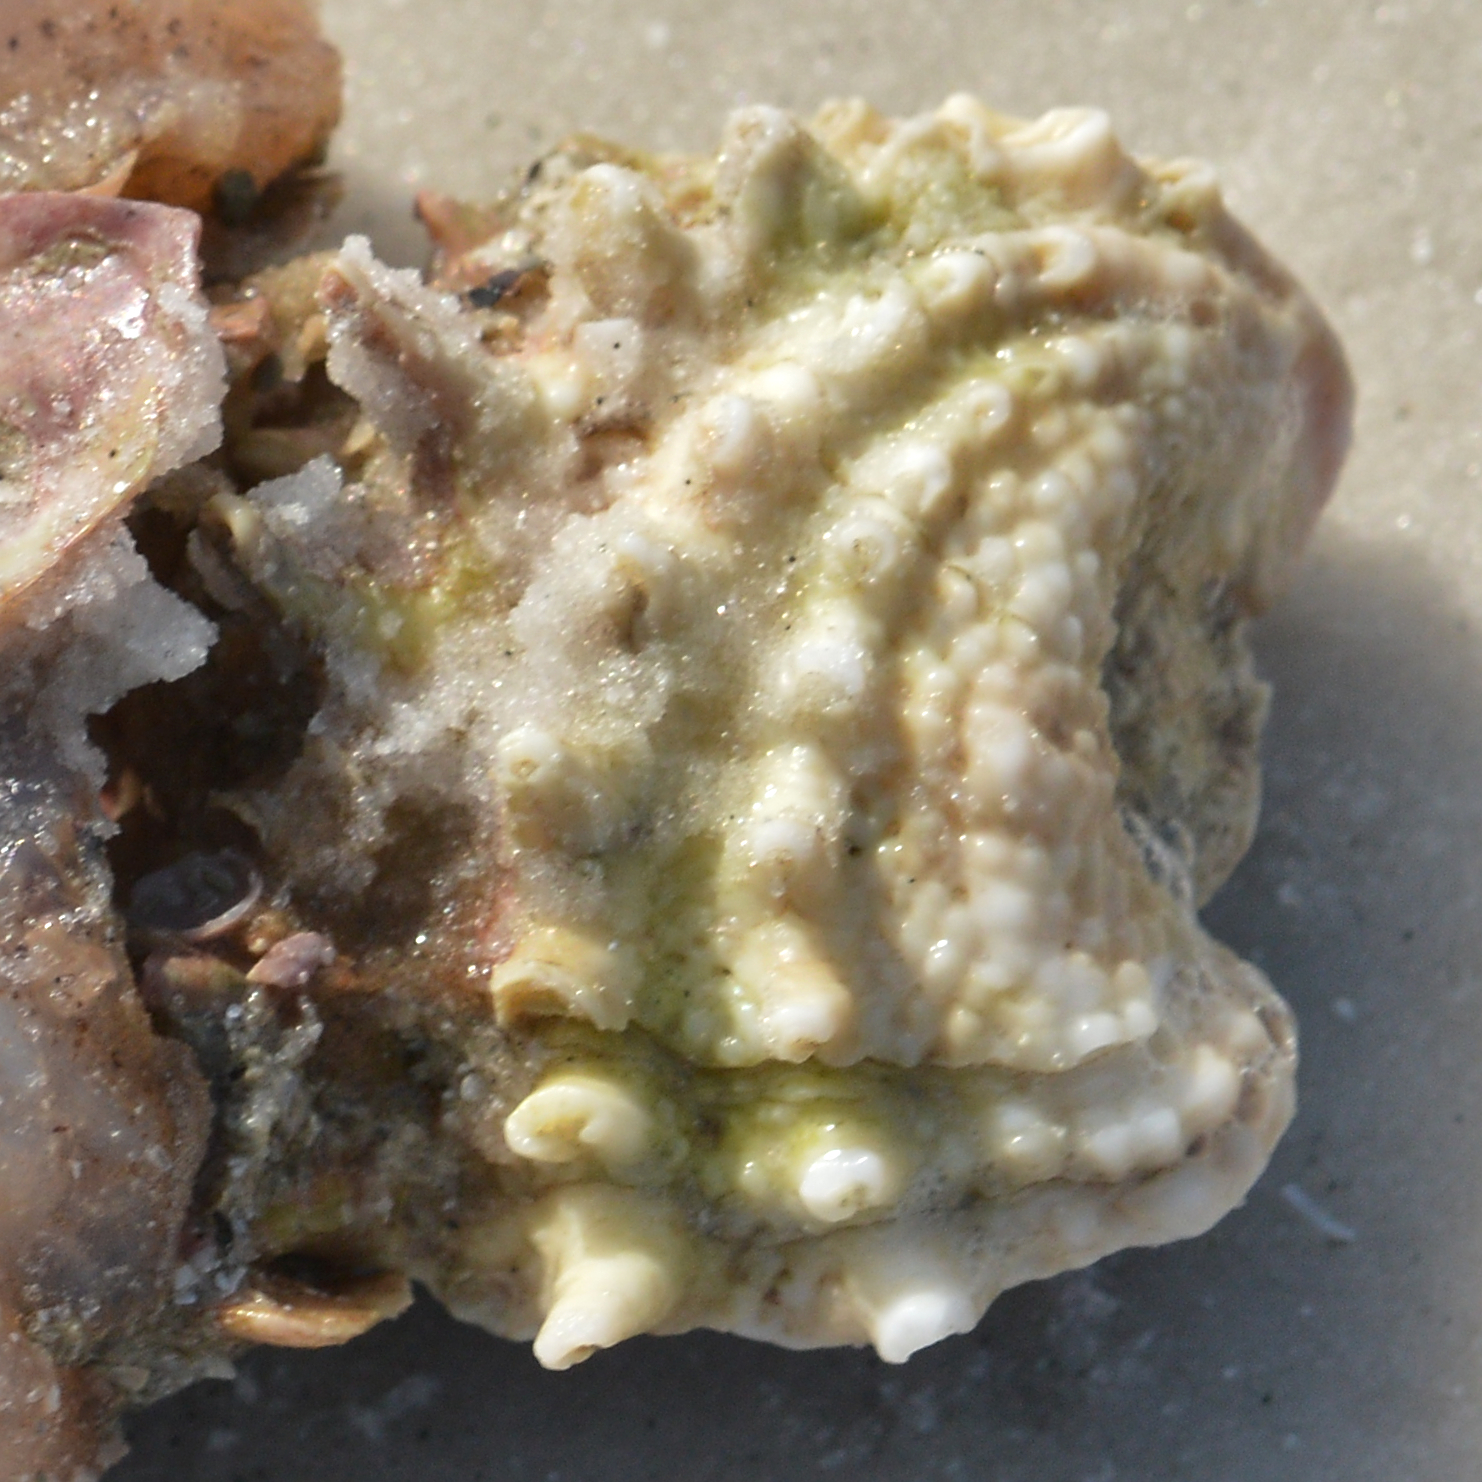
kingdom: Animalia
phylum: Mollusca
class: Bivalvia
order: Venerida
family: Chamidae
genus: Arcinella
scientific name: Arcinella cornuta
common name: Florida spiny jewel box
